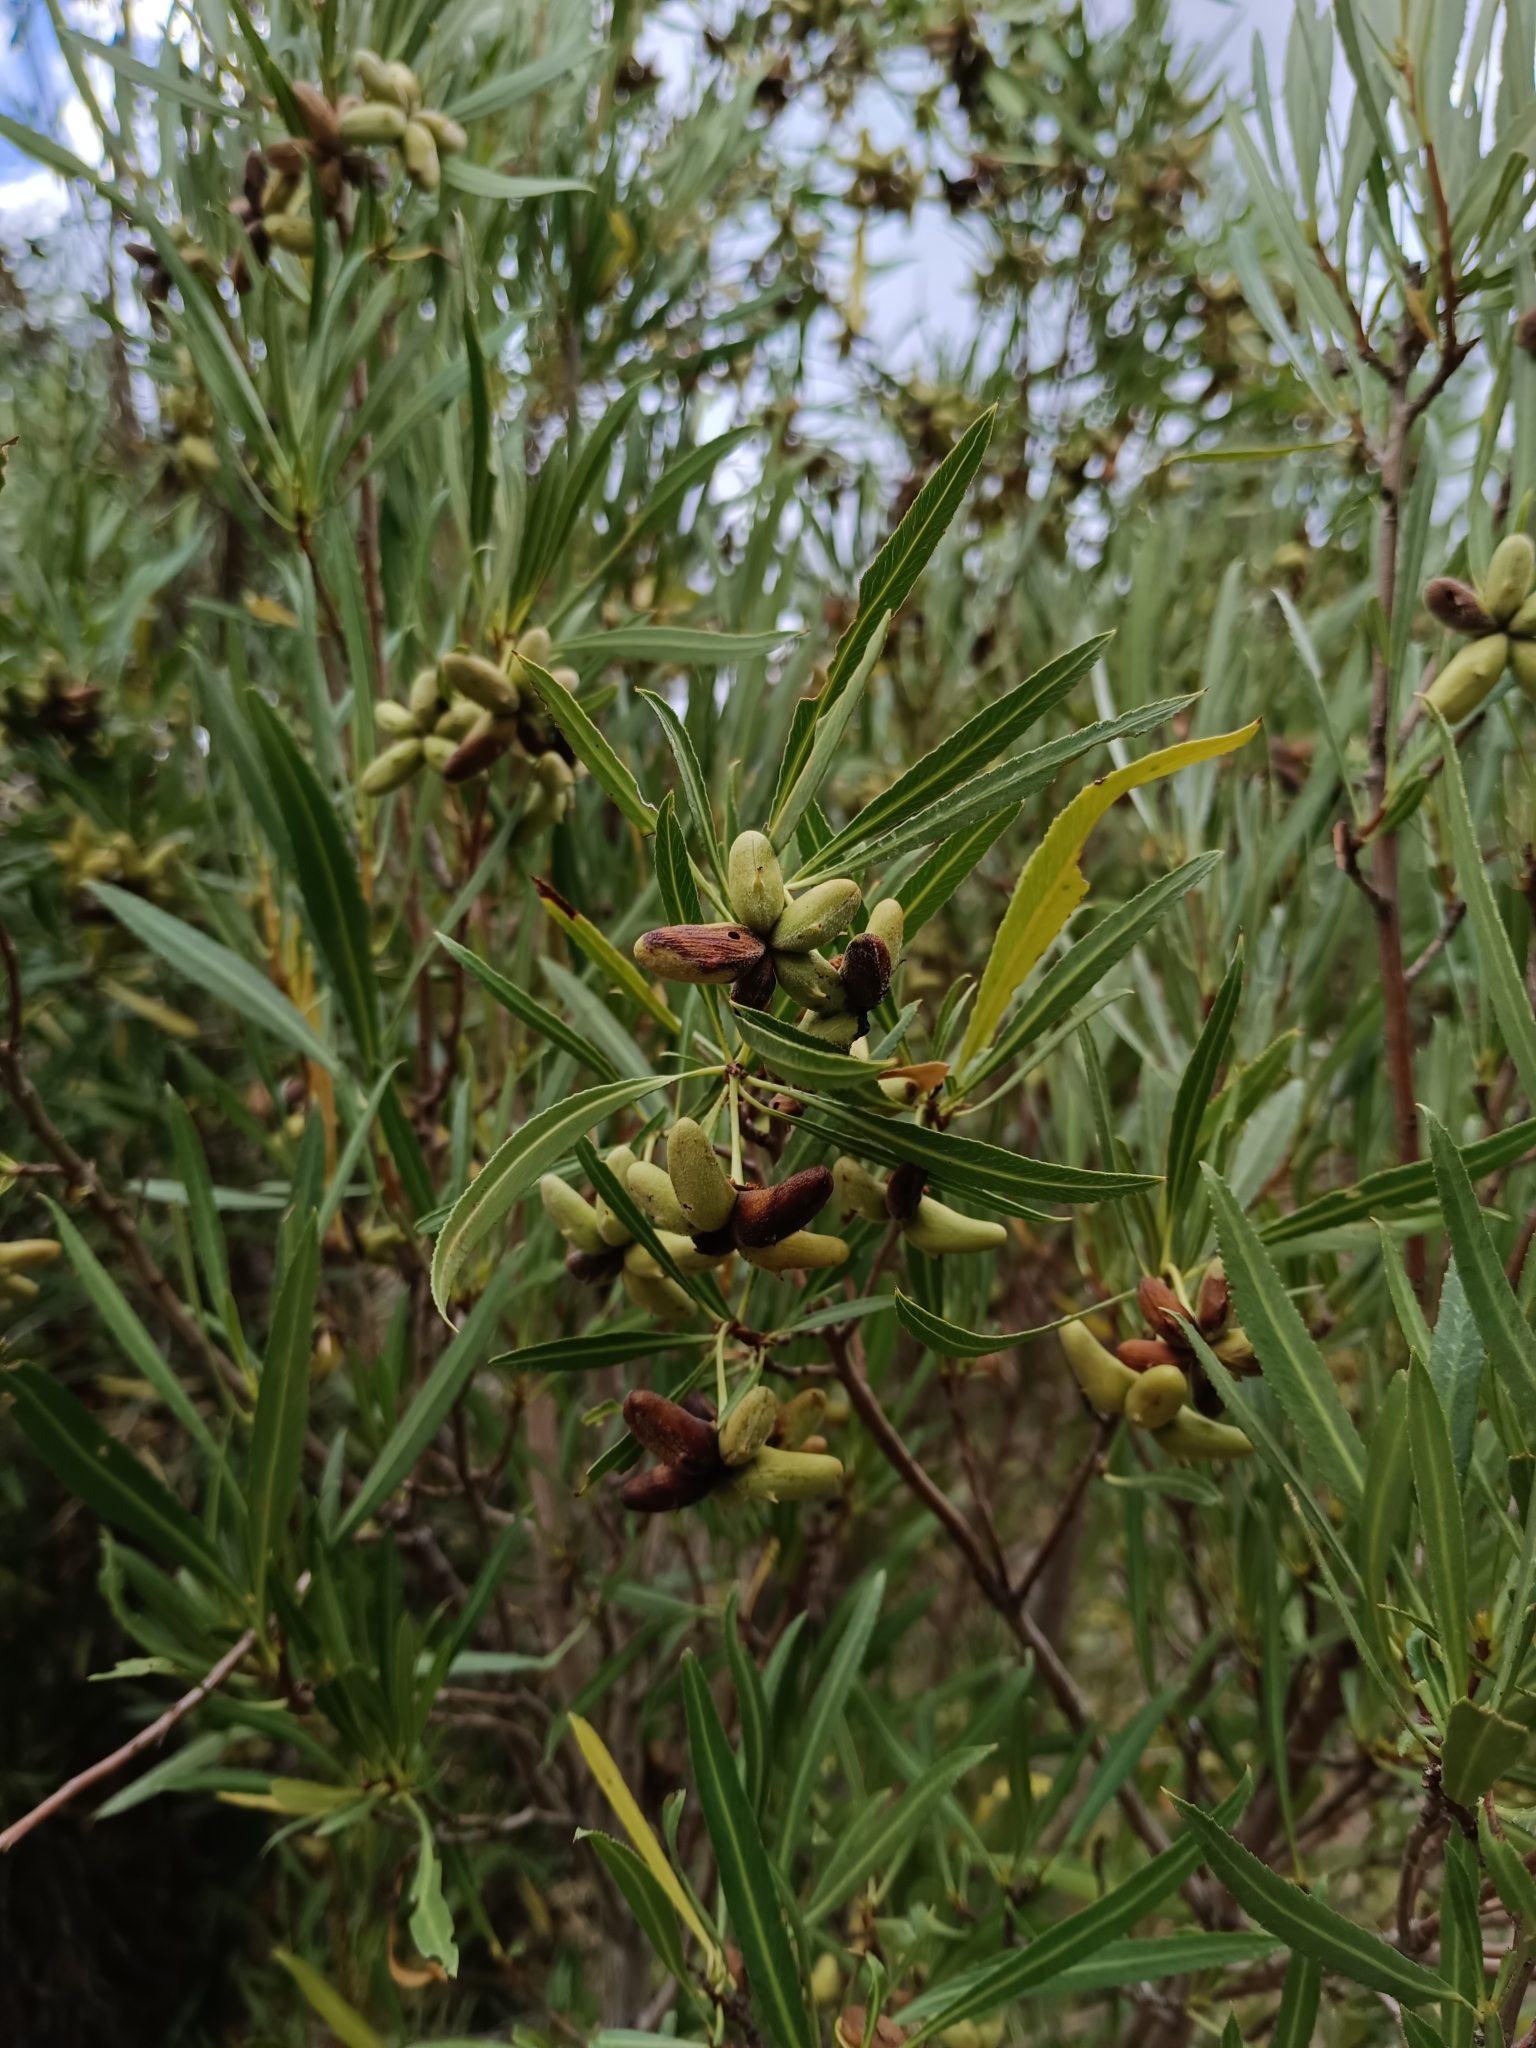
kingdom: Plantae
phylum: Tracheophyta
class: Magnoliopsida
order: Rosales
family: Rosaceae
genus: Kageneckia
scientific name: Kageneckia angustifolia
